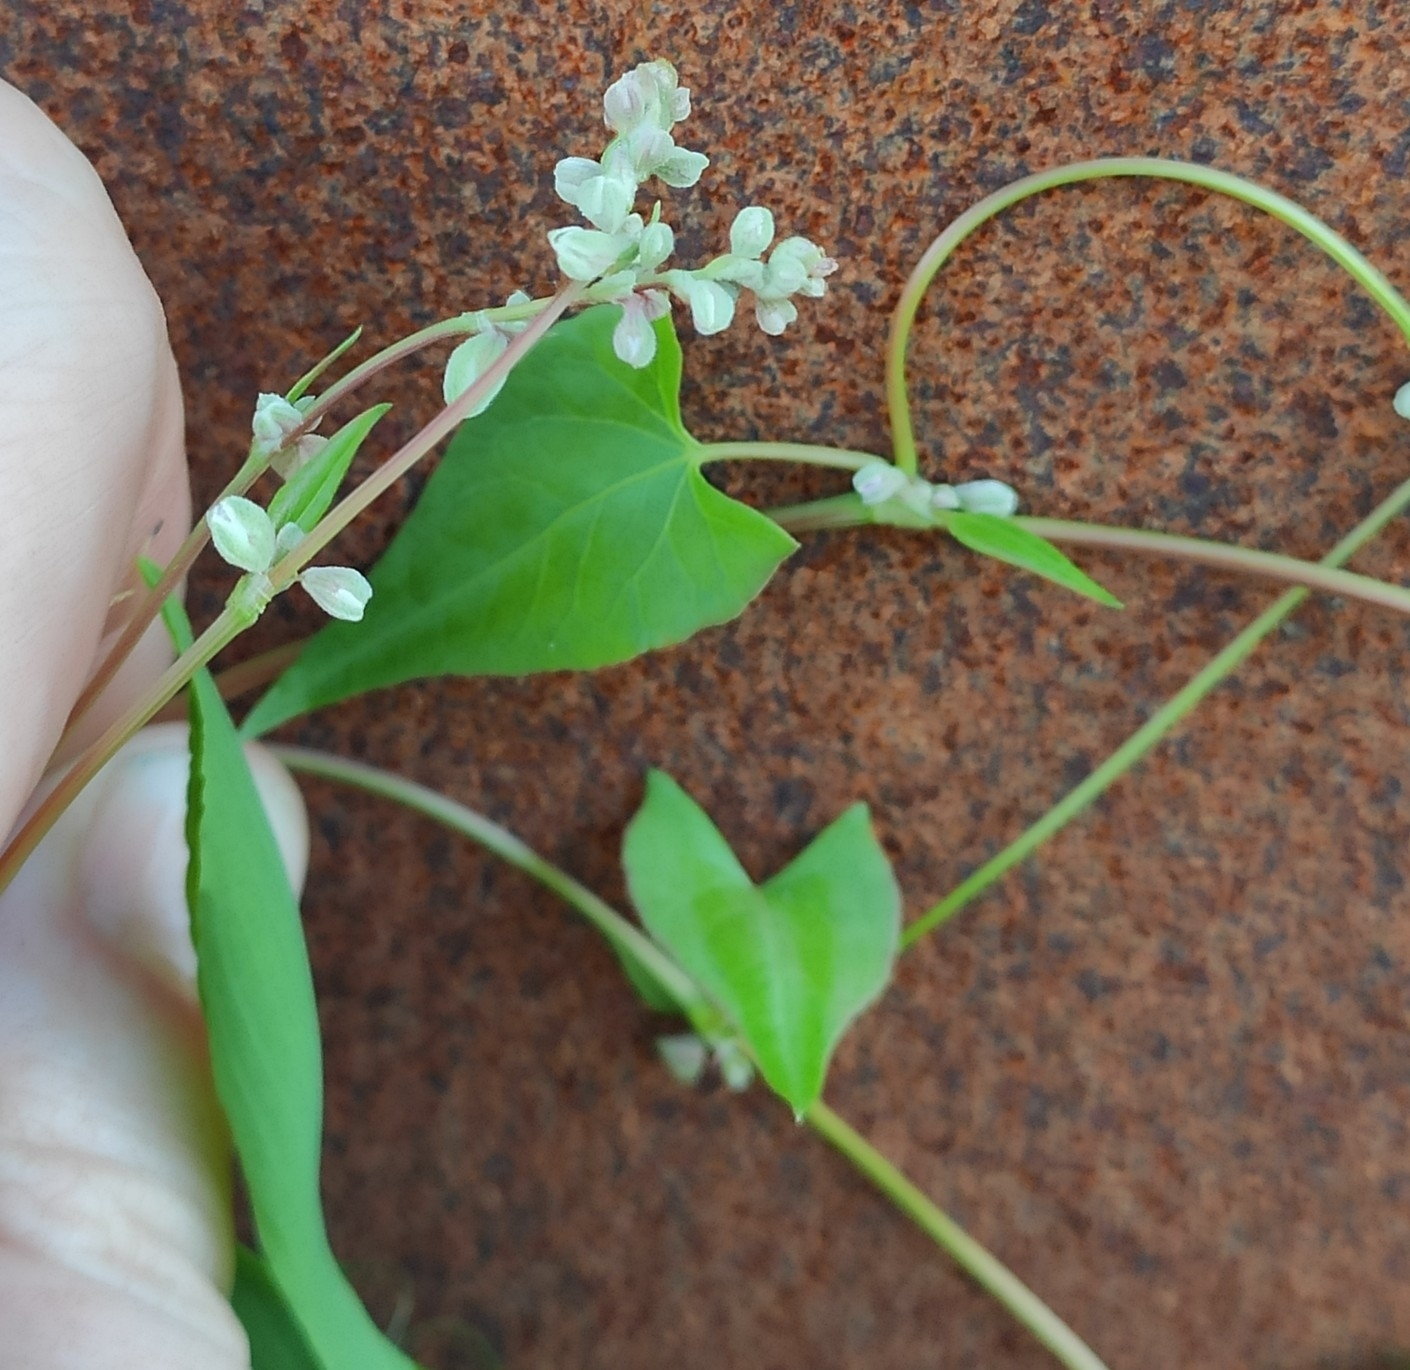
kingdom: Plantae
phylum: Tracheophyta
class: Magnoliopsida
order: Caryophyllales
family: Polygonaceae
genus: Fallopia
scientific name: Fallopia convolvulus
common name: Black bindweed
